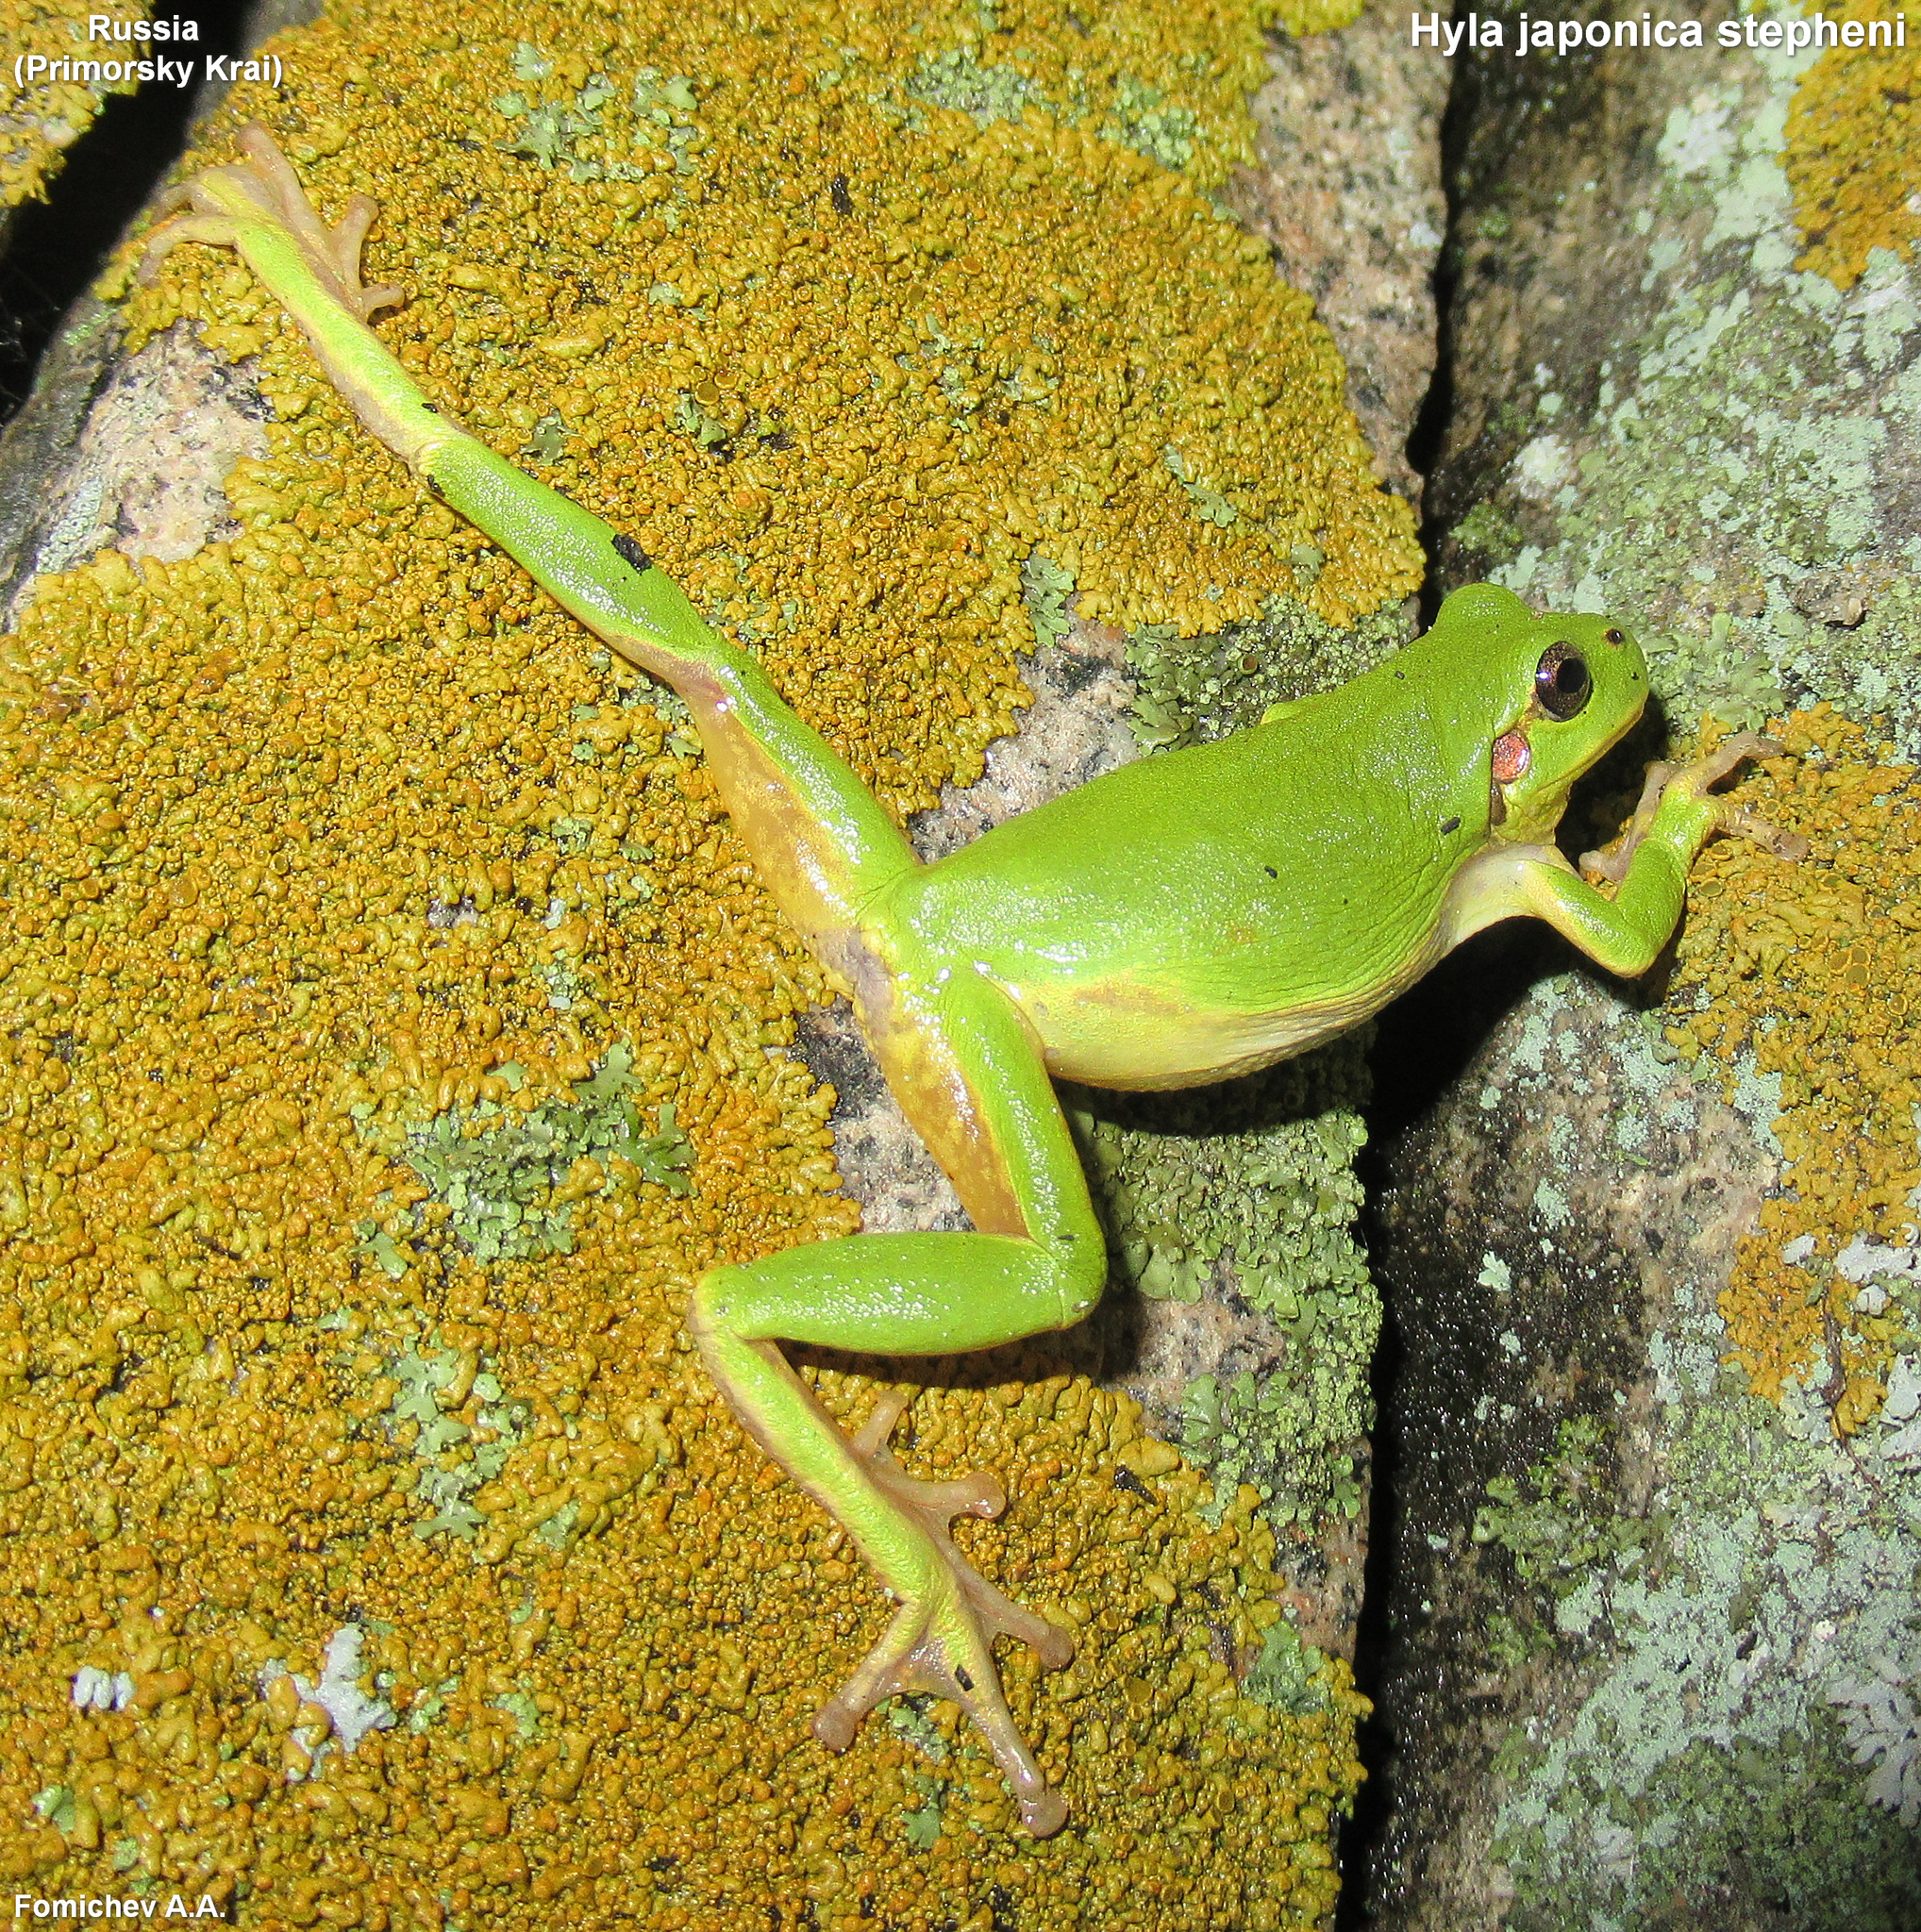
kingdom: Animalia
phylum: Chordata
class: Amphibia
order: Anura
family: Hylidae
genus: Dryophytes
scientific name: Dryophytes japonicus
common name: Japanese treefrog
